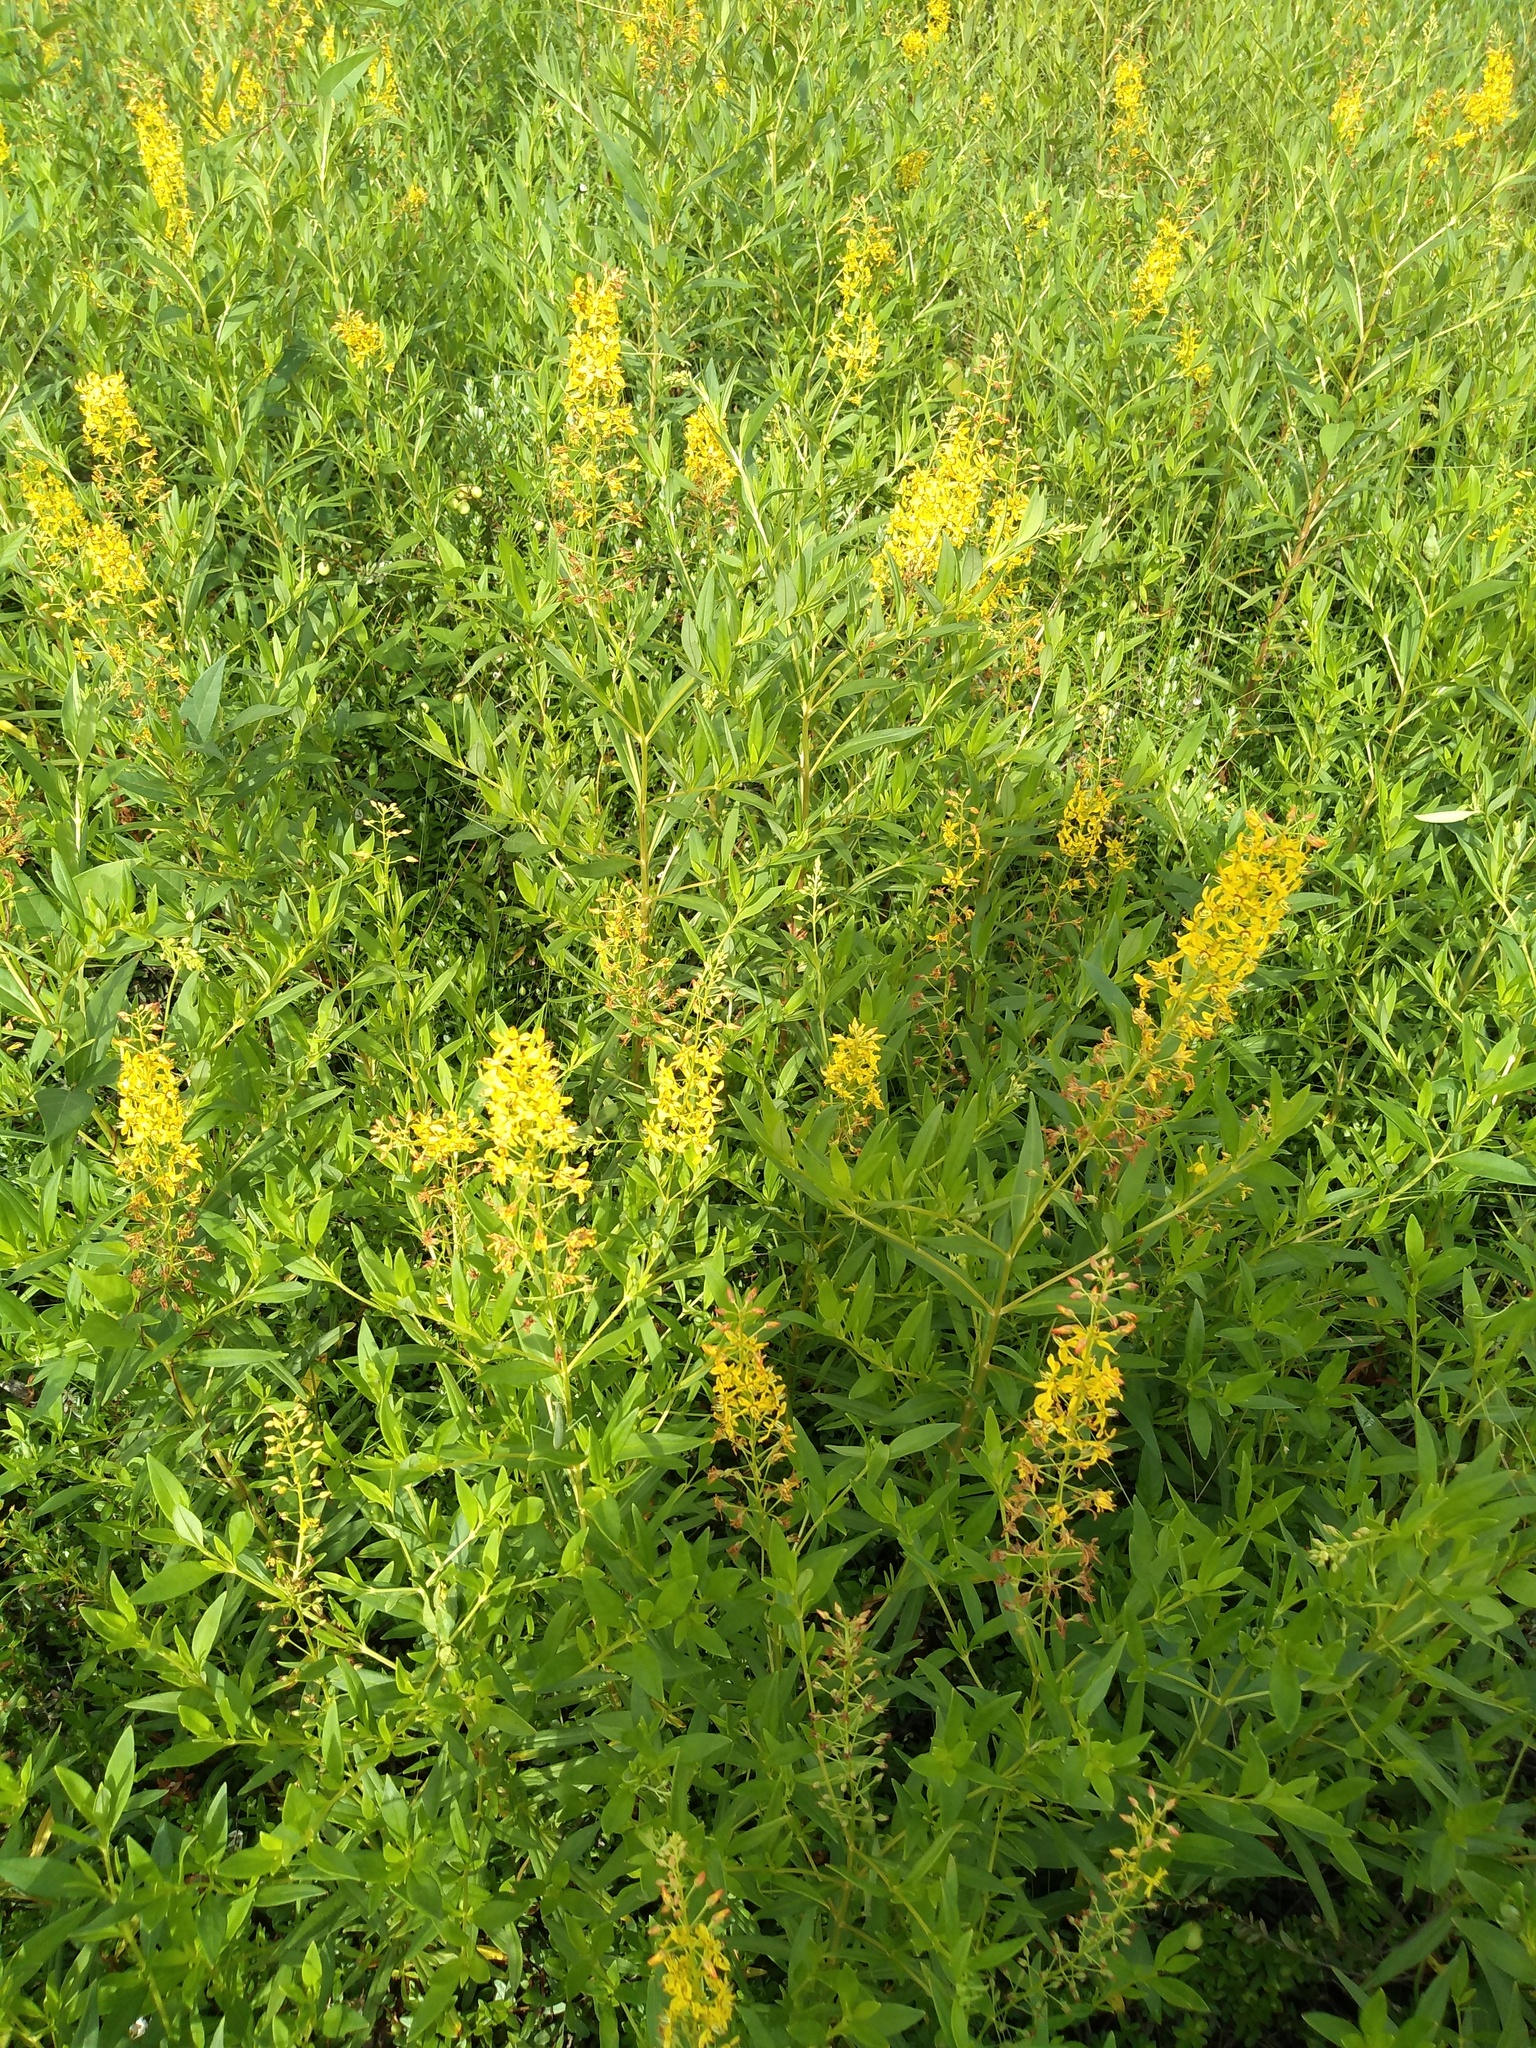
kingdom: Plantae
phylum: Tracheophyta
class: Magnoliopsida
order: Ericales
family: Primulaceae
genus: Lysimachia
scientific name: Lysimachia terrestris
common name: Lake loosestrife
